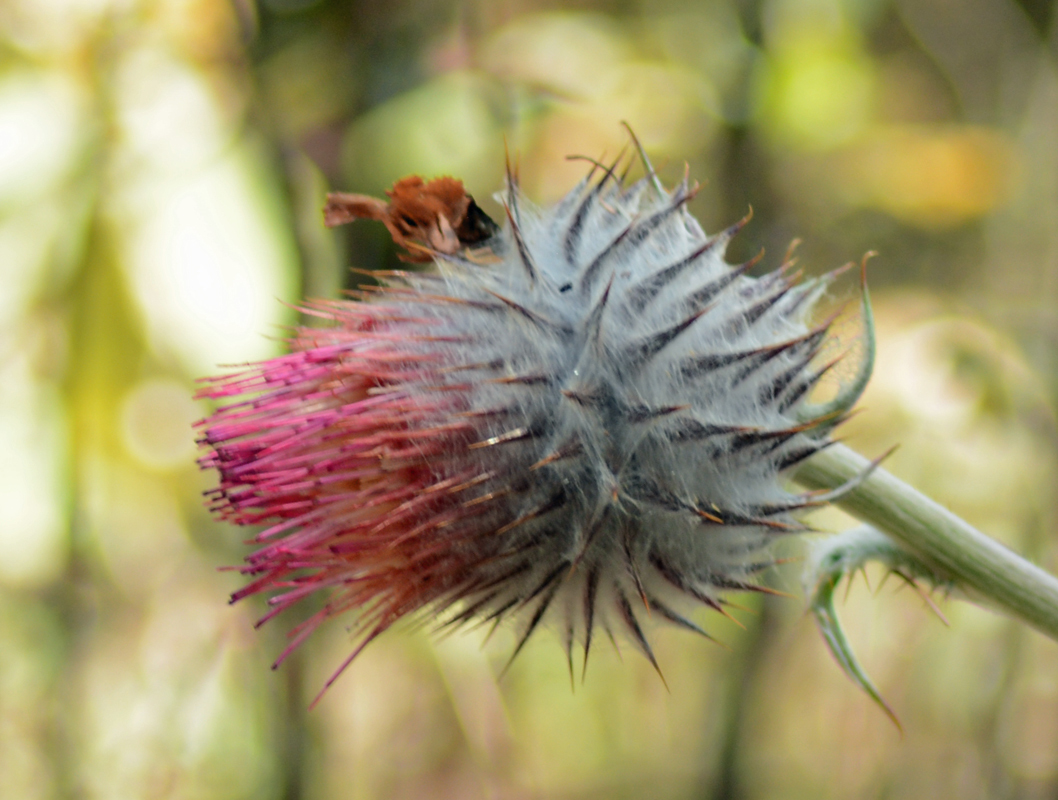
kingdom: Plantae
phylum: Tracheophyta
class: Magnoliopsida
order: Asterales
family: Asteraceae
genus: Cirsium
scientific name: Cirsium ehrenbergii
